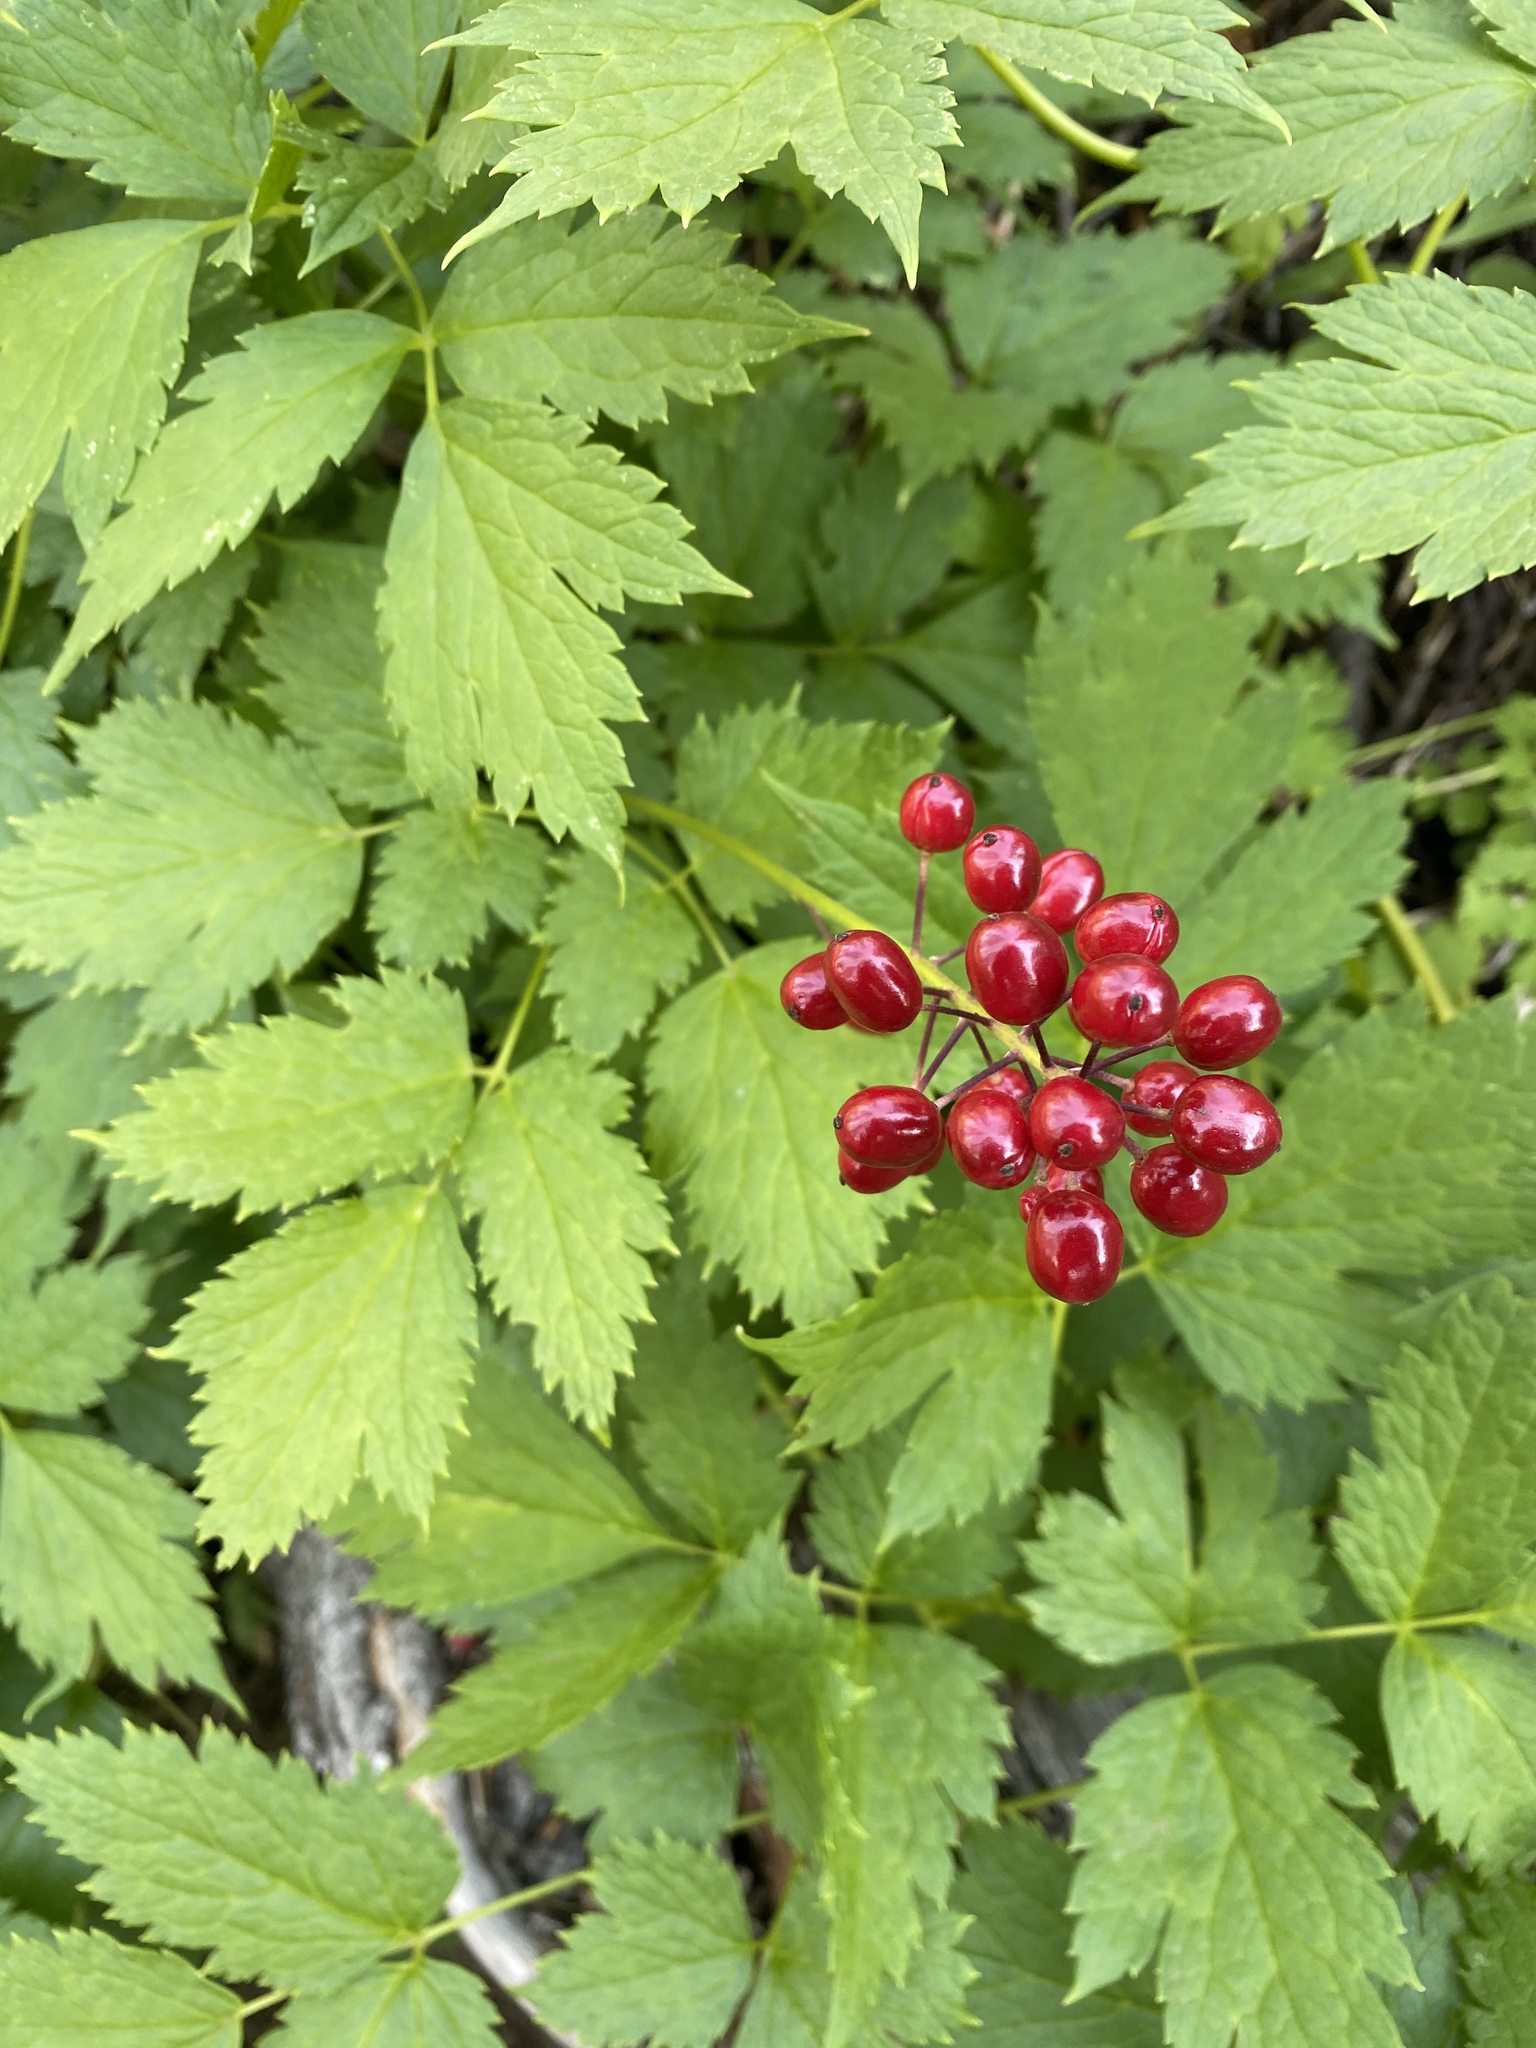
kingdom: Plantae
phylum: Tracheophyta
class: Magnoliopsida
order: Ranunculales
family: Ranunculaceae
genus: Actaea
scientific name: Actaea rubra
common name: Red baneberry
